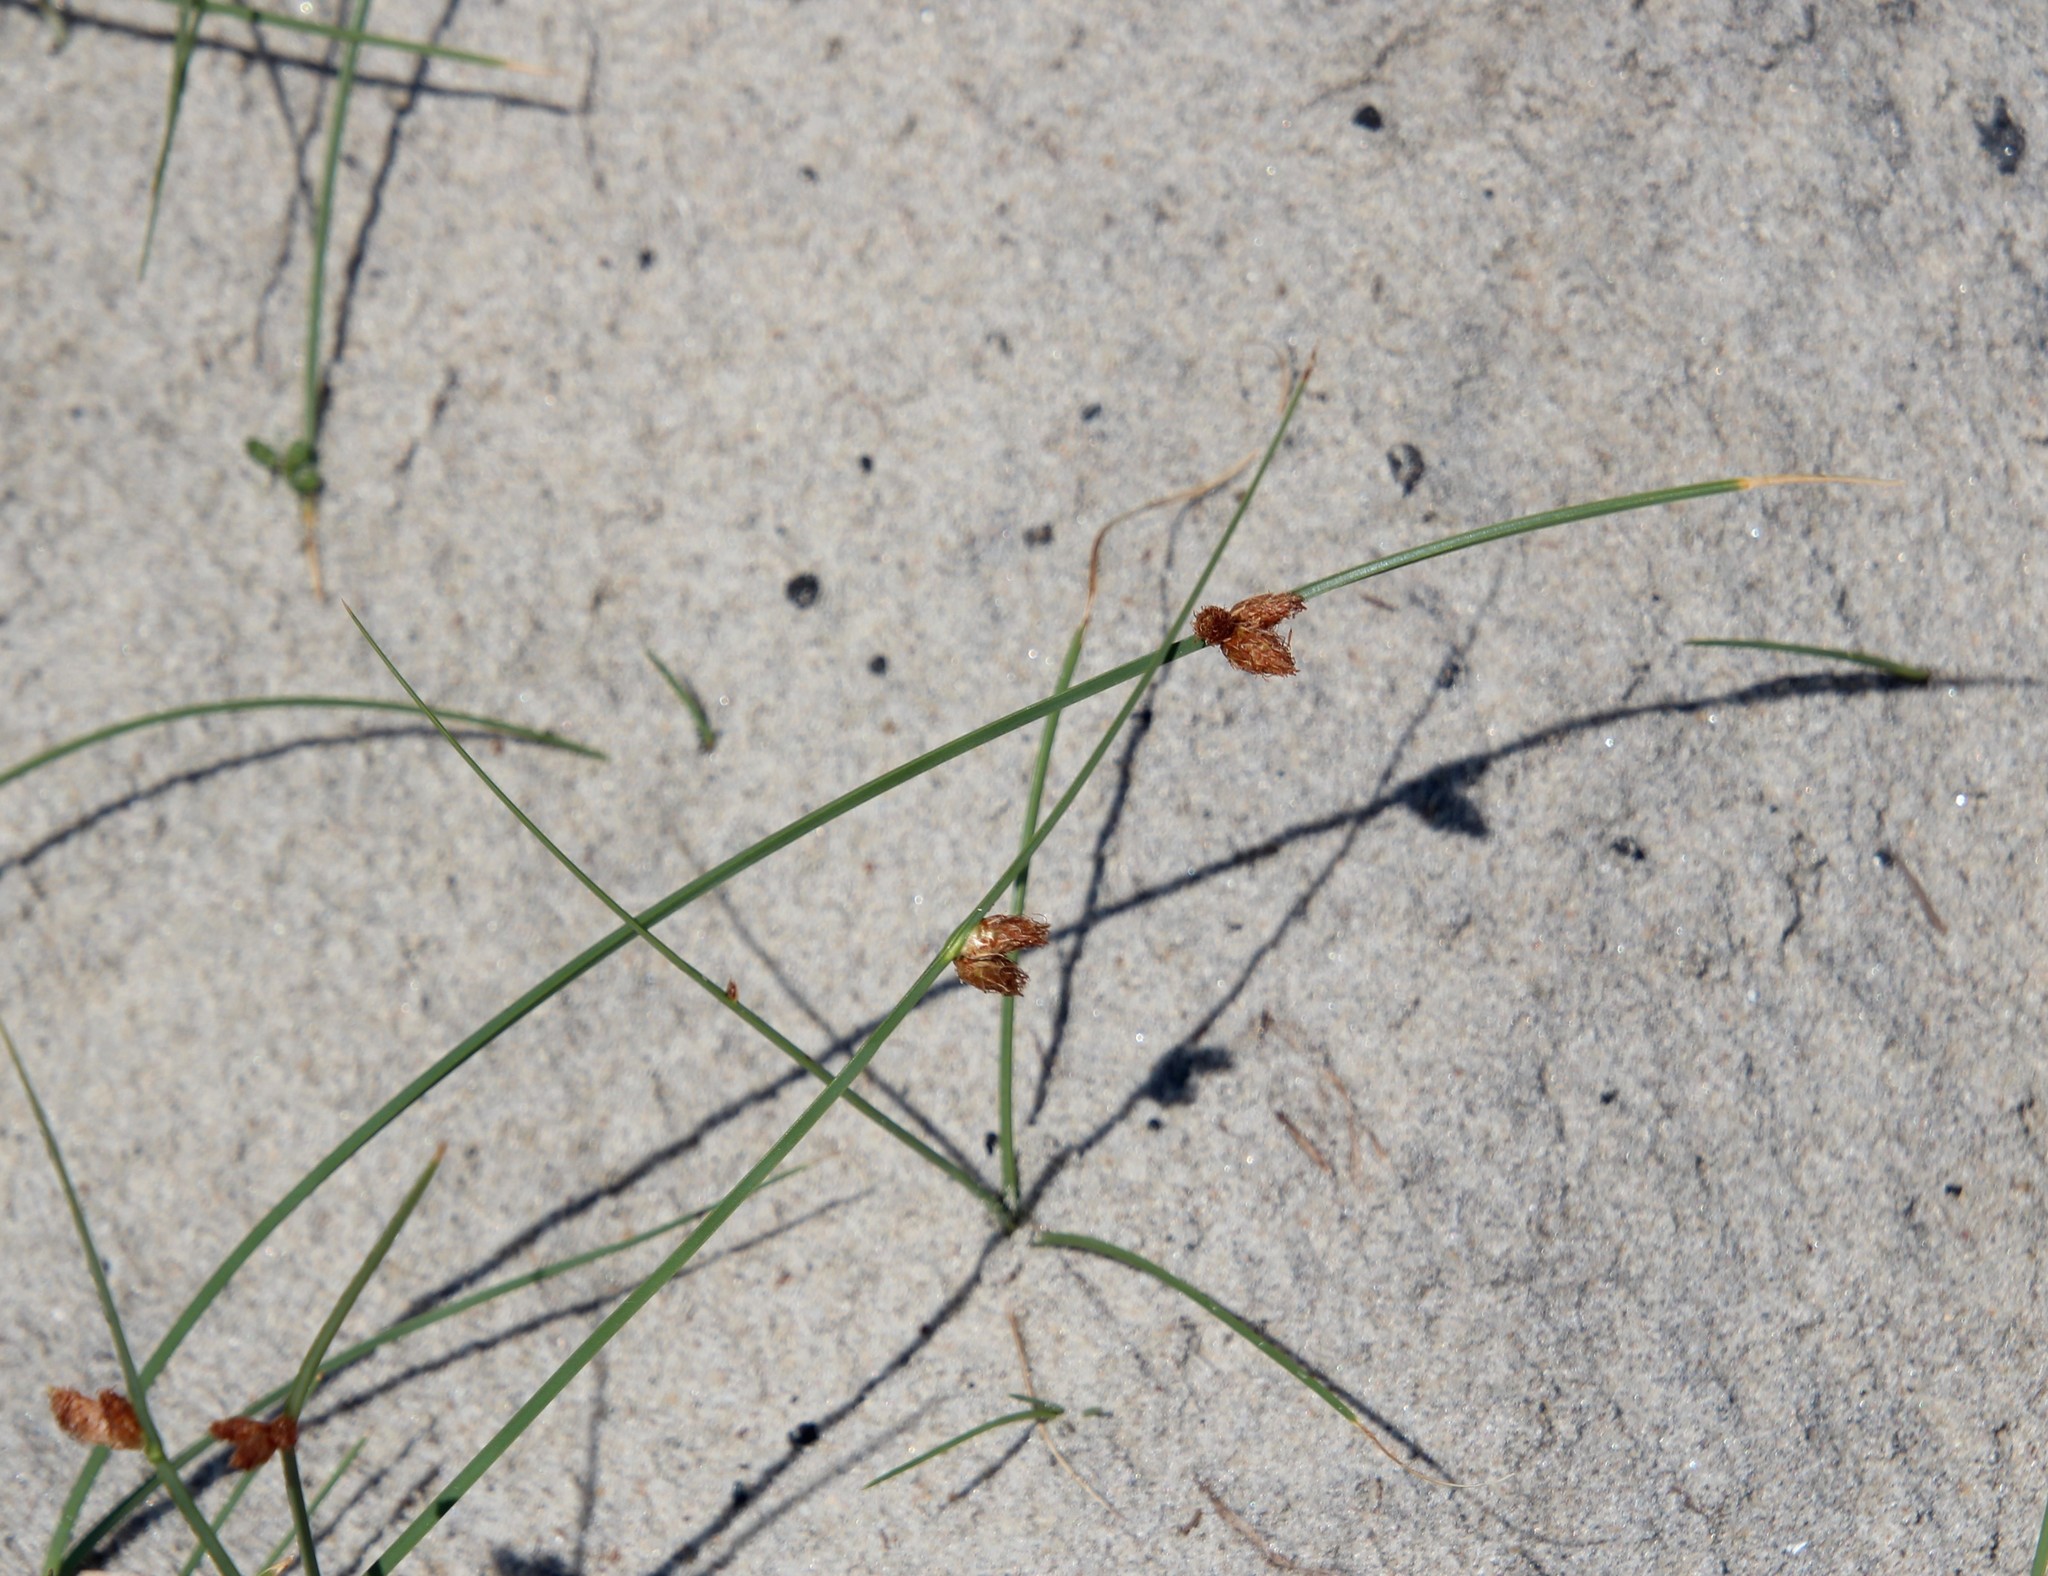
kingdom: Plantae
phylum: Tracheophyta
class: Liliopsida
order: Poales
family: Cyperaceae
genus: Schoenoplectus
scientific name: Schoenoplectus pungens
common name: Sharp club-rush
